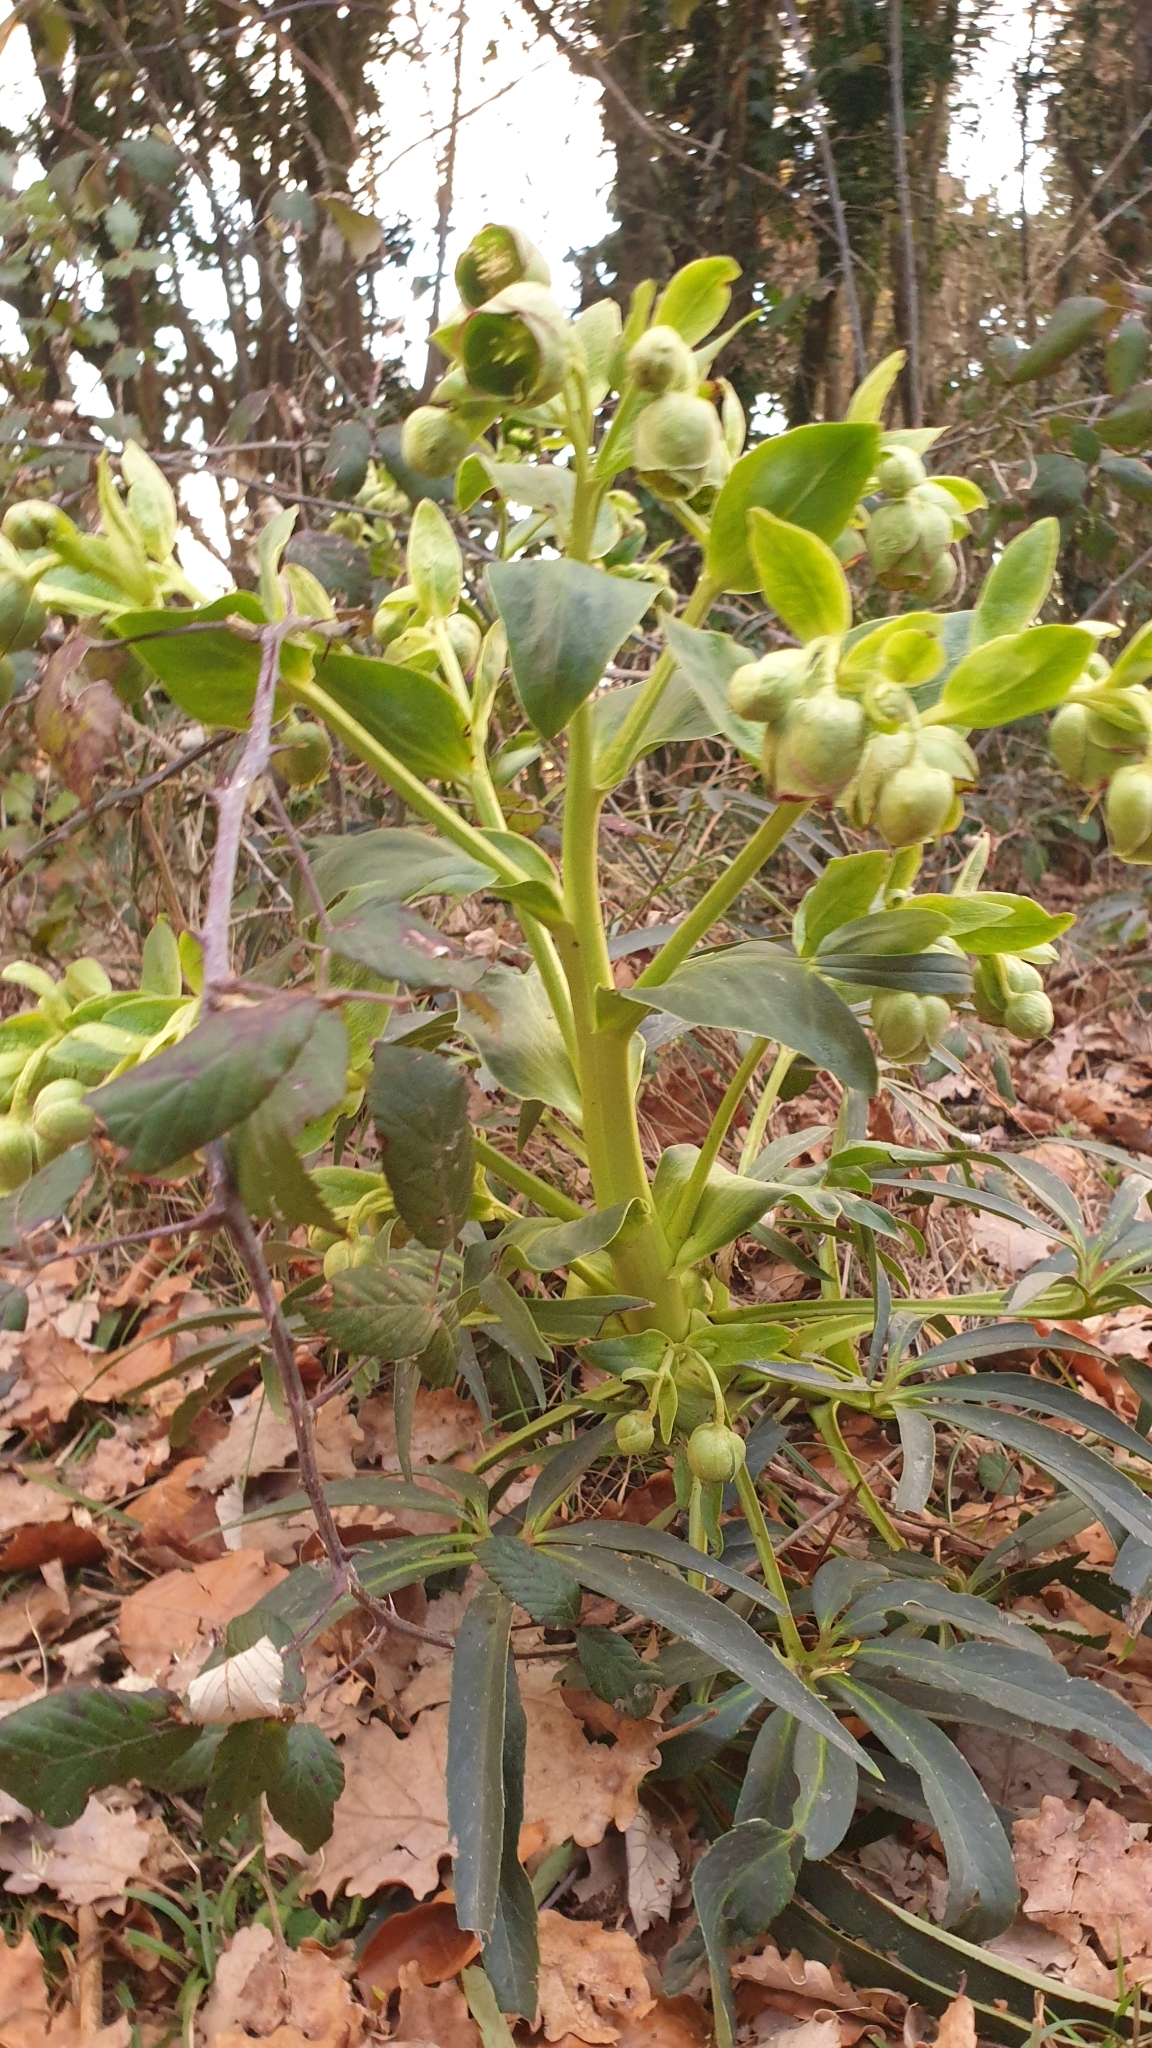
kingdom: Plantae
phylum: Tracheophyta
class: Magnoliopsida
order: Ranunculales
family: Ranunculaceae
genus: Helleborus
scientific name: Helleborus foetidus
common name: Stinking hellebore
